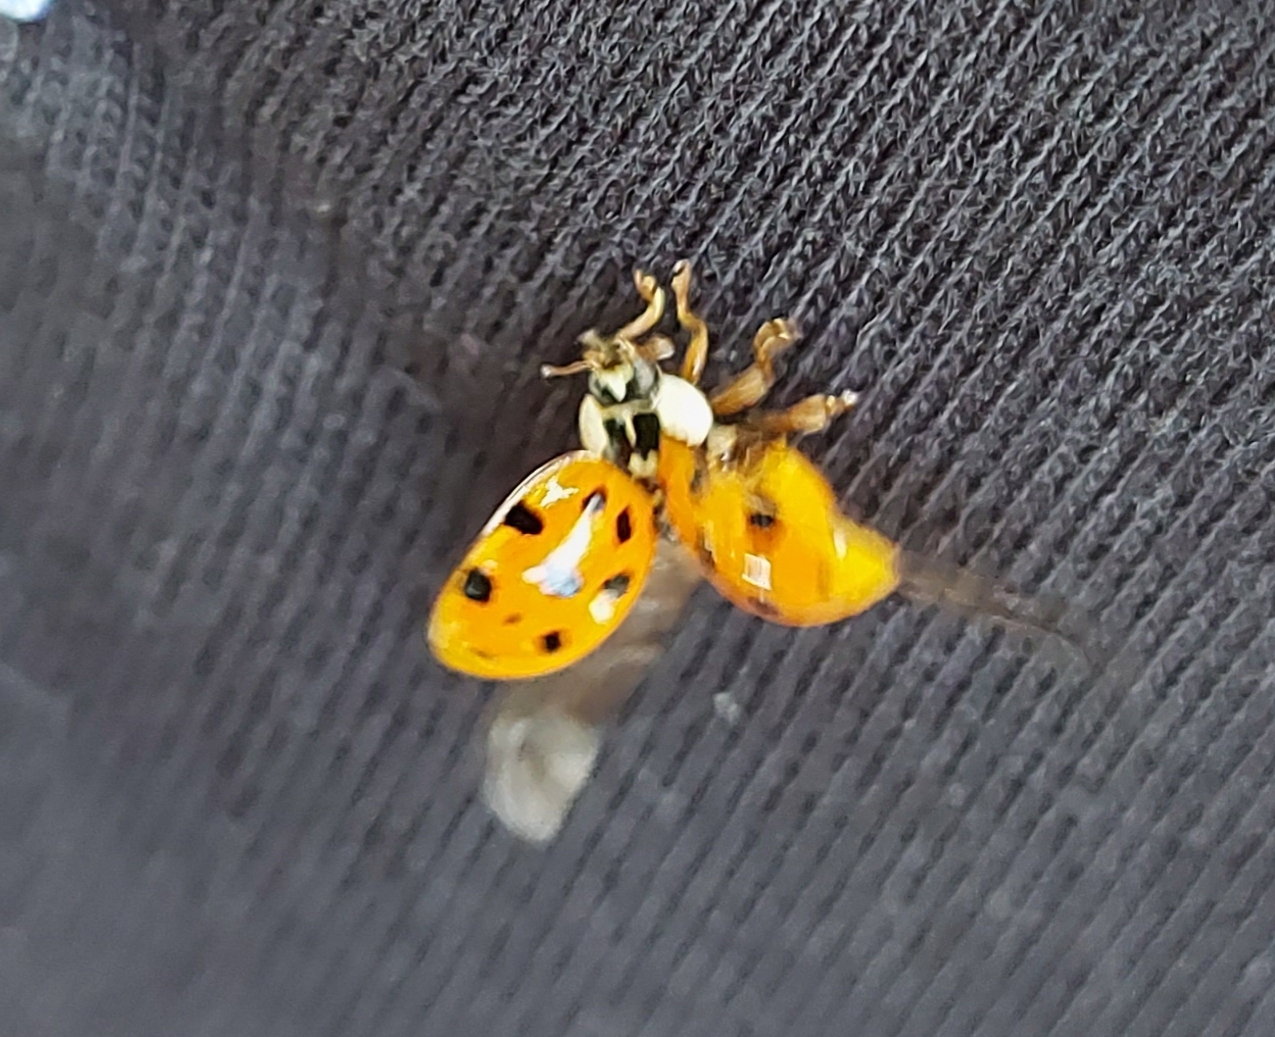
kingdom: Animalia
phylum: Arthropoda
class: Insecta
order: Coleoptera
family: Coccinellidae
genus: Harmonia
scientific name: Harmonia axyridis
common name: Harlequin ladybird
